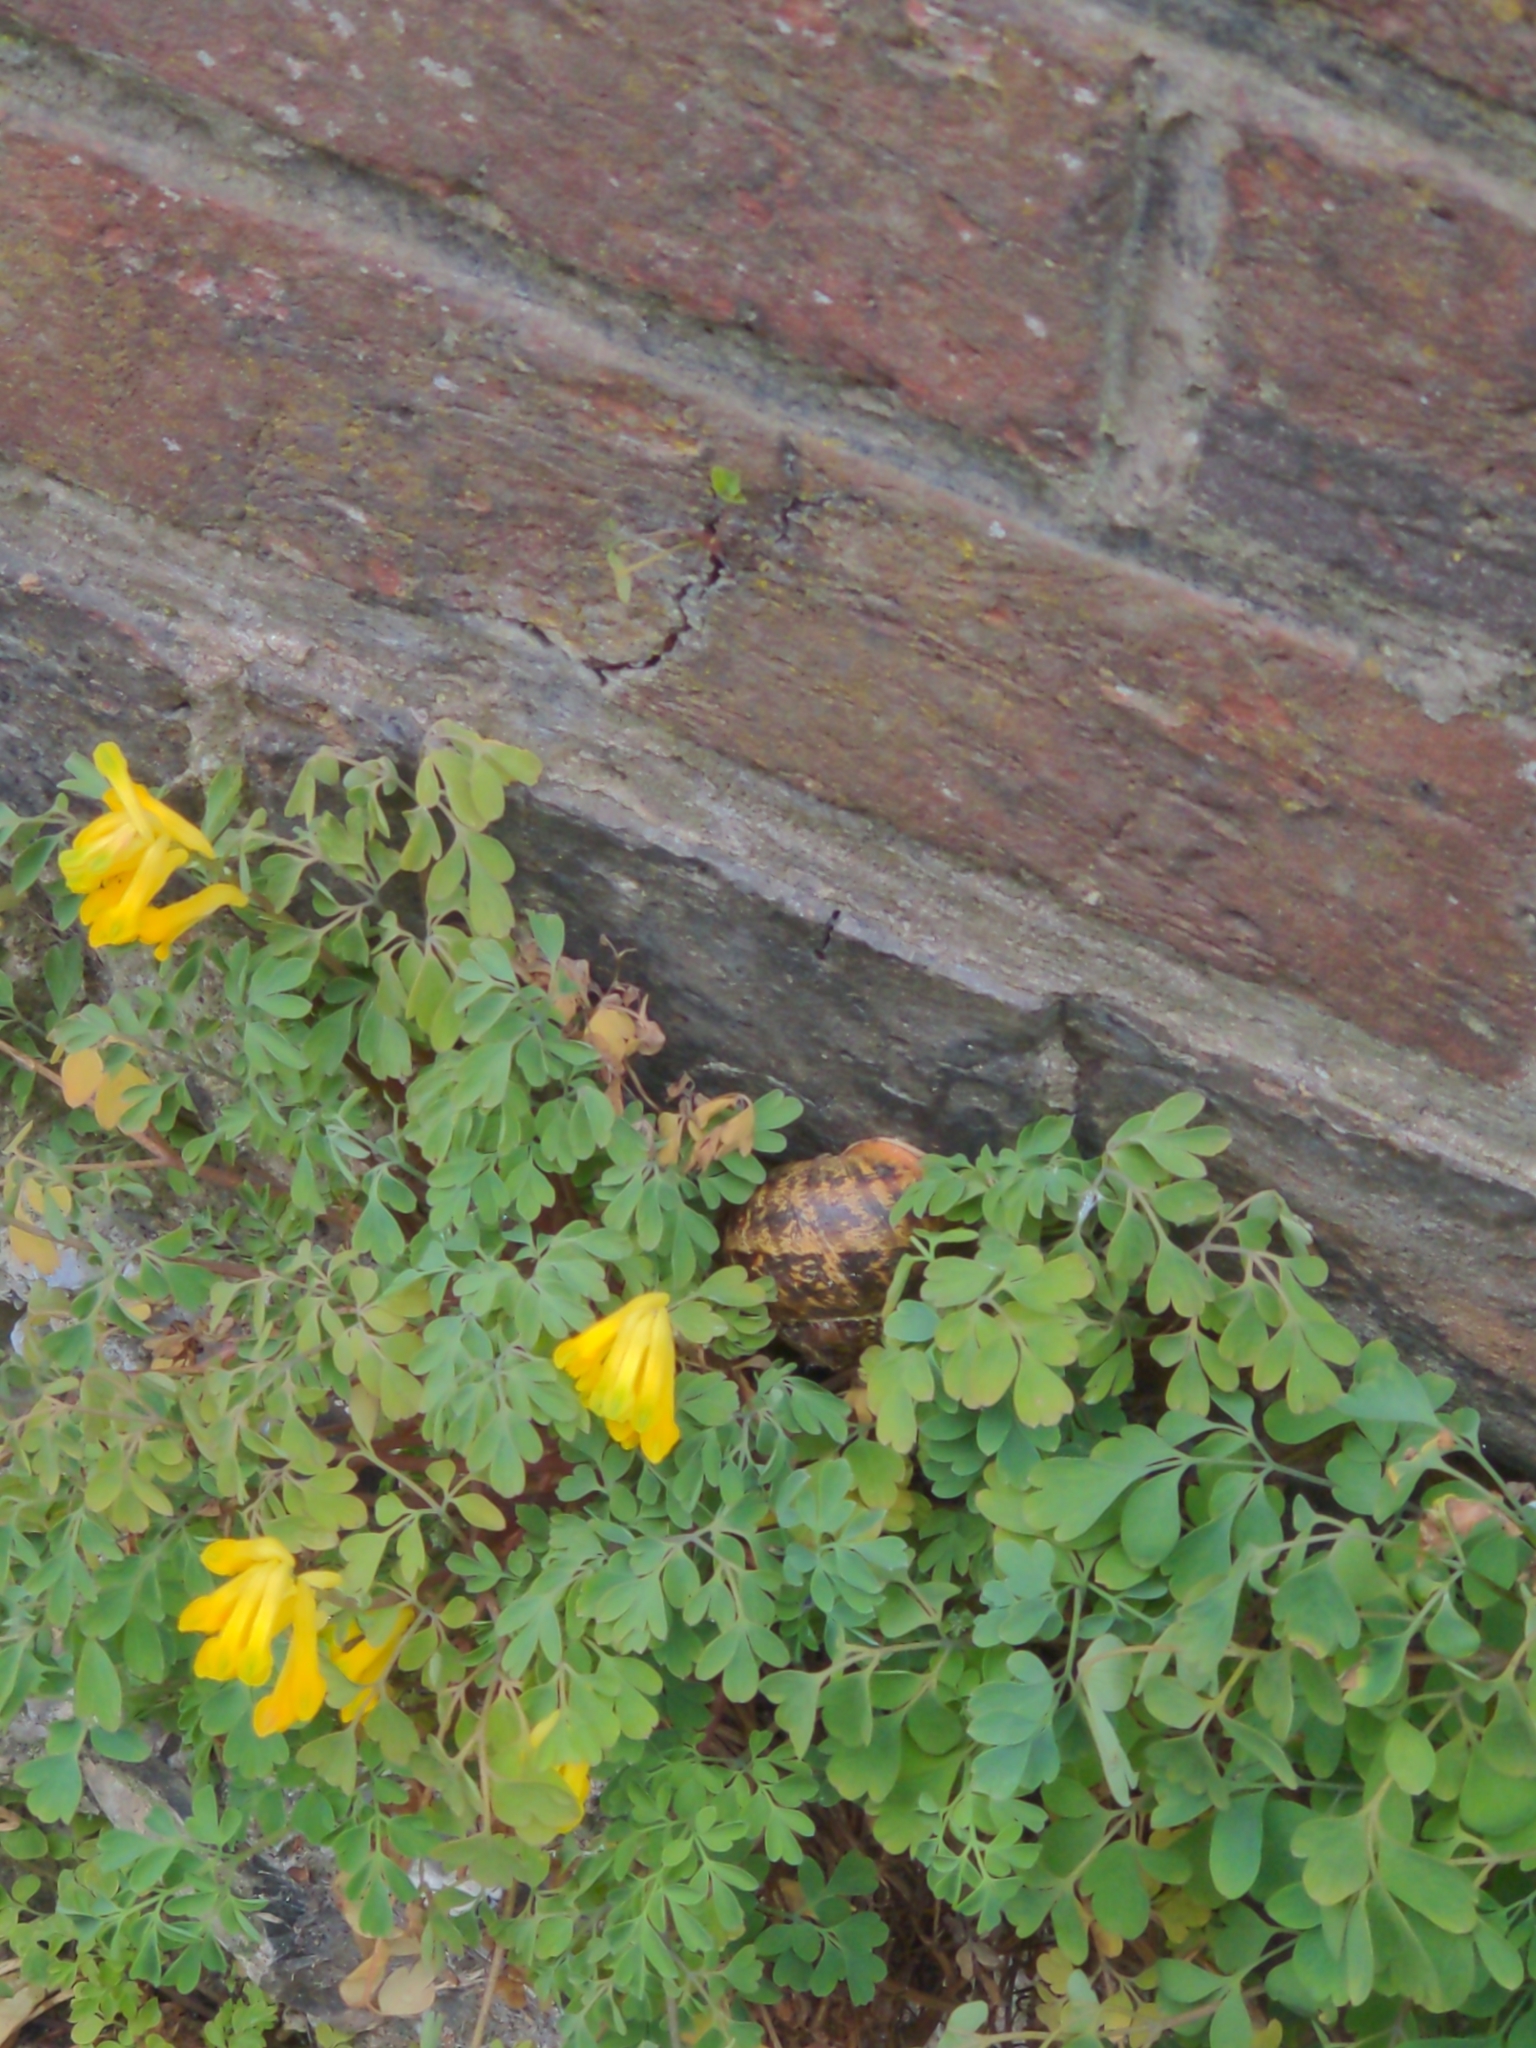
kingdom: Plantae
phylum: Tracheophyta
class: Magnoliopsida
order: Ranunculales
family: Papaveraceae
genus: Pseudofumaria
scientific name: Pseudofumaria lutea
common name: Yellow corydalis
